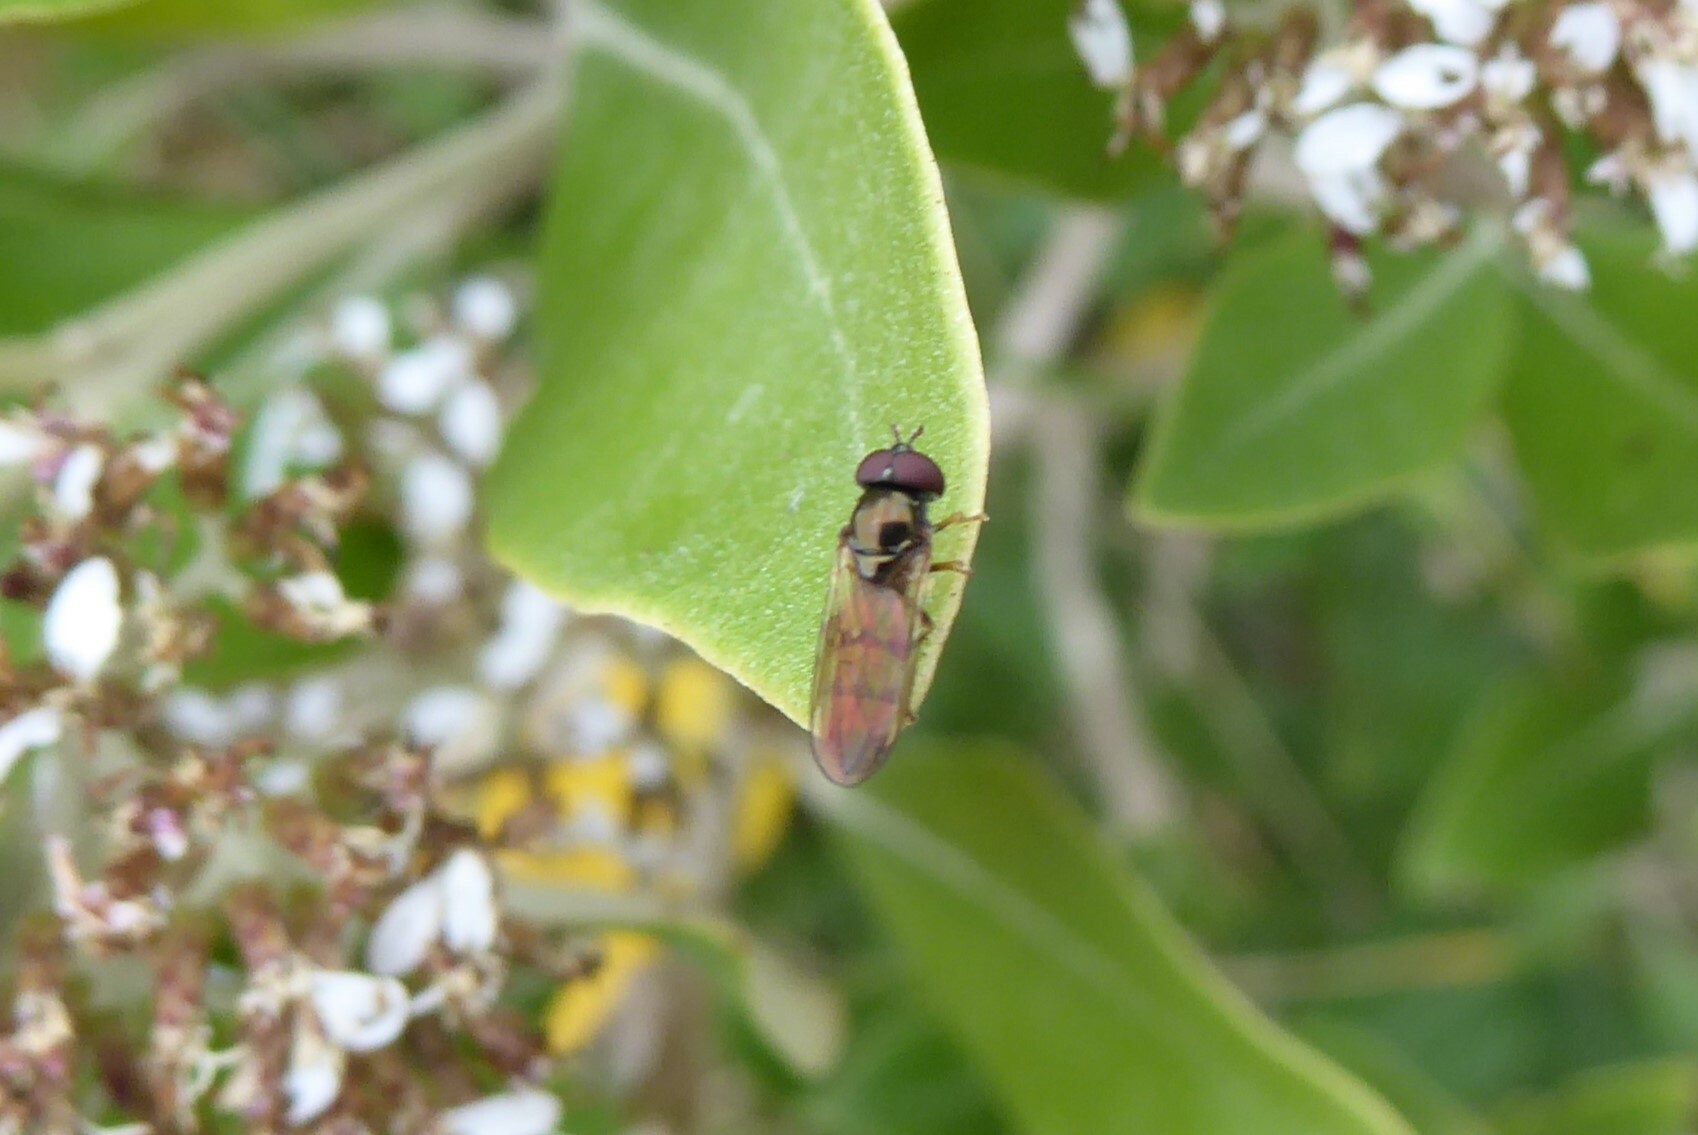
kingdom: Animalia
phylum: Arthropoda
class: Insecta
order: Diptera
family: Syrphidae
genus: Melanostoma
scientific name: Melanostoma fasciatum
